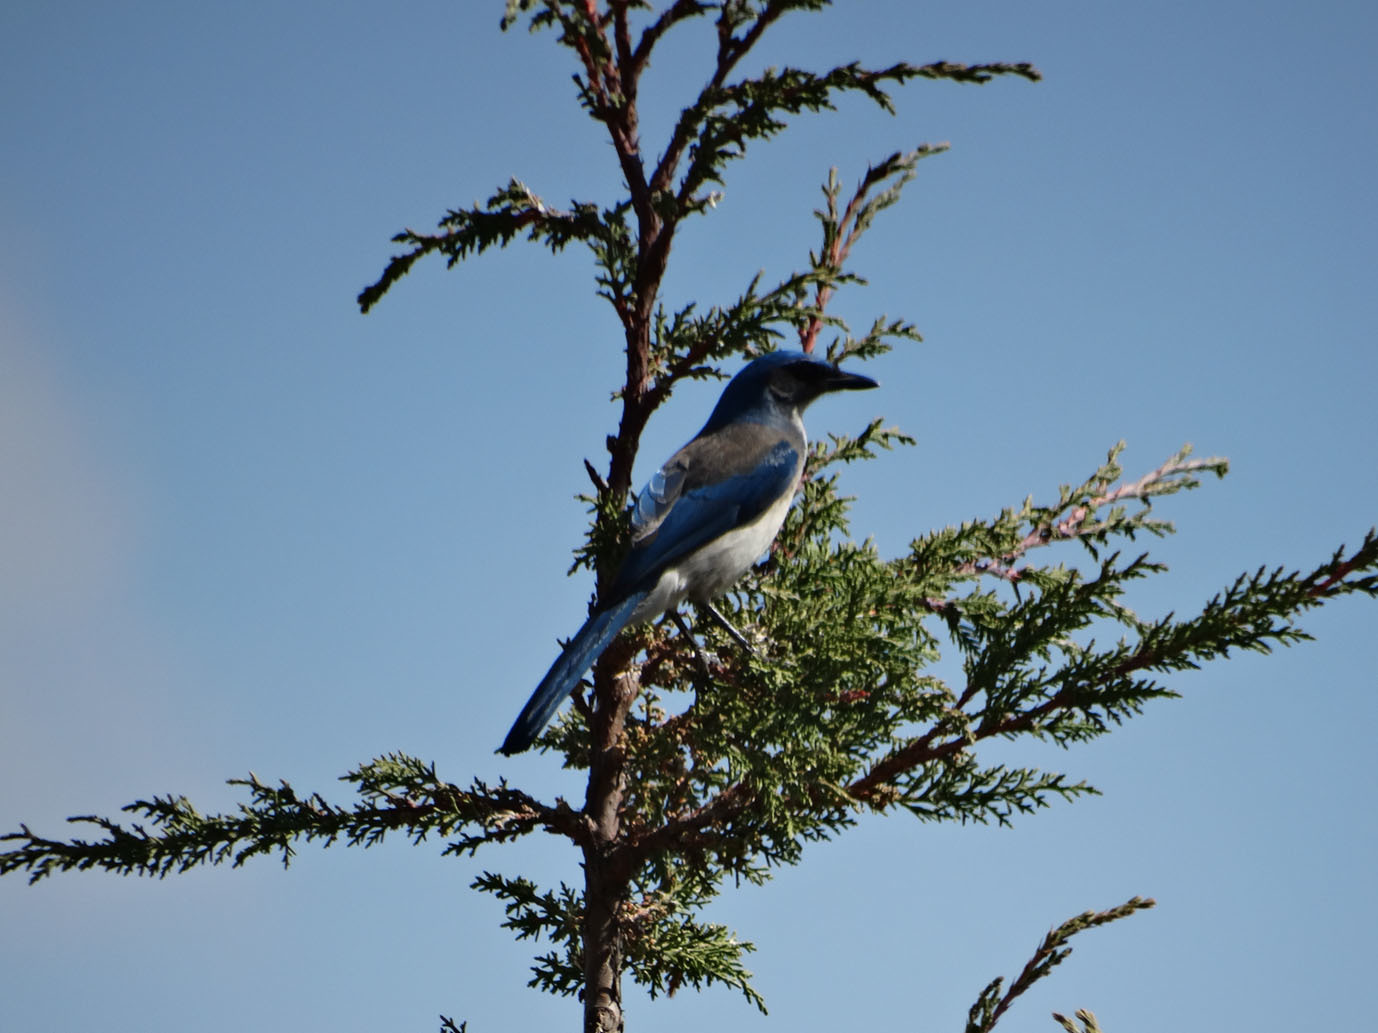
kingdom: Animalia
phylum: Chordata
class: Aves
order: Passeriformes
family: Corvidae
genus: Aphelocoma
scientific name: Aphelocoma woodhouseii
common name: Woodhouse's scrub-jay
